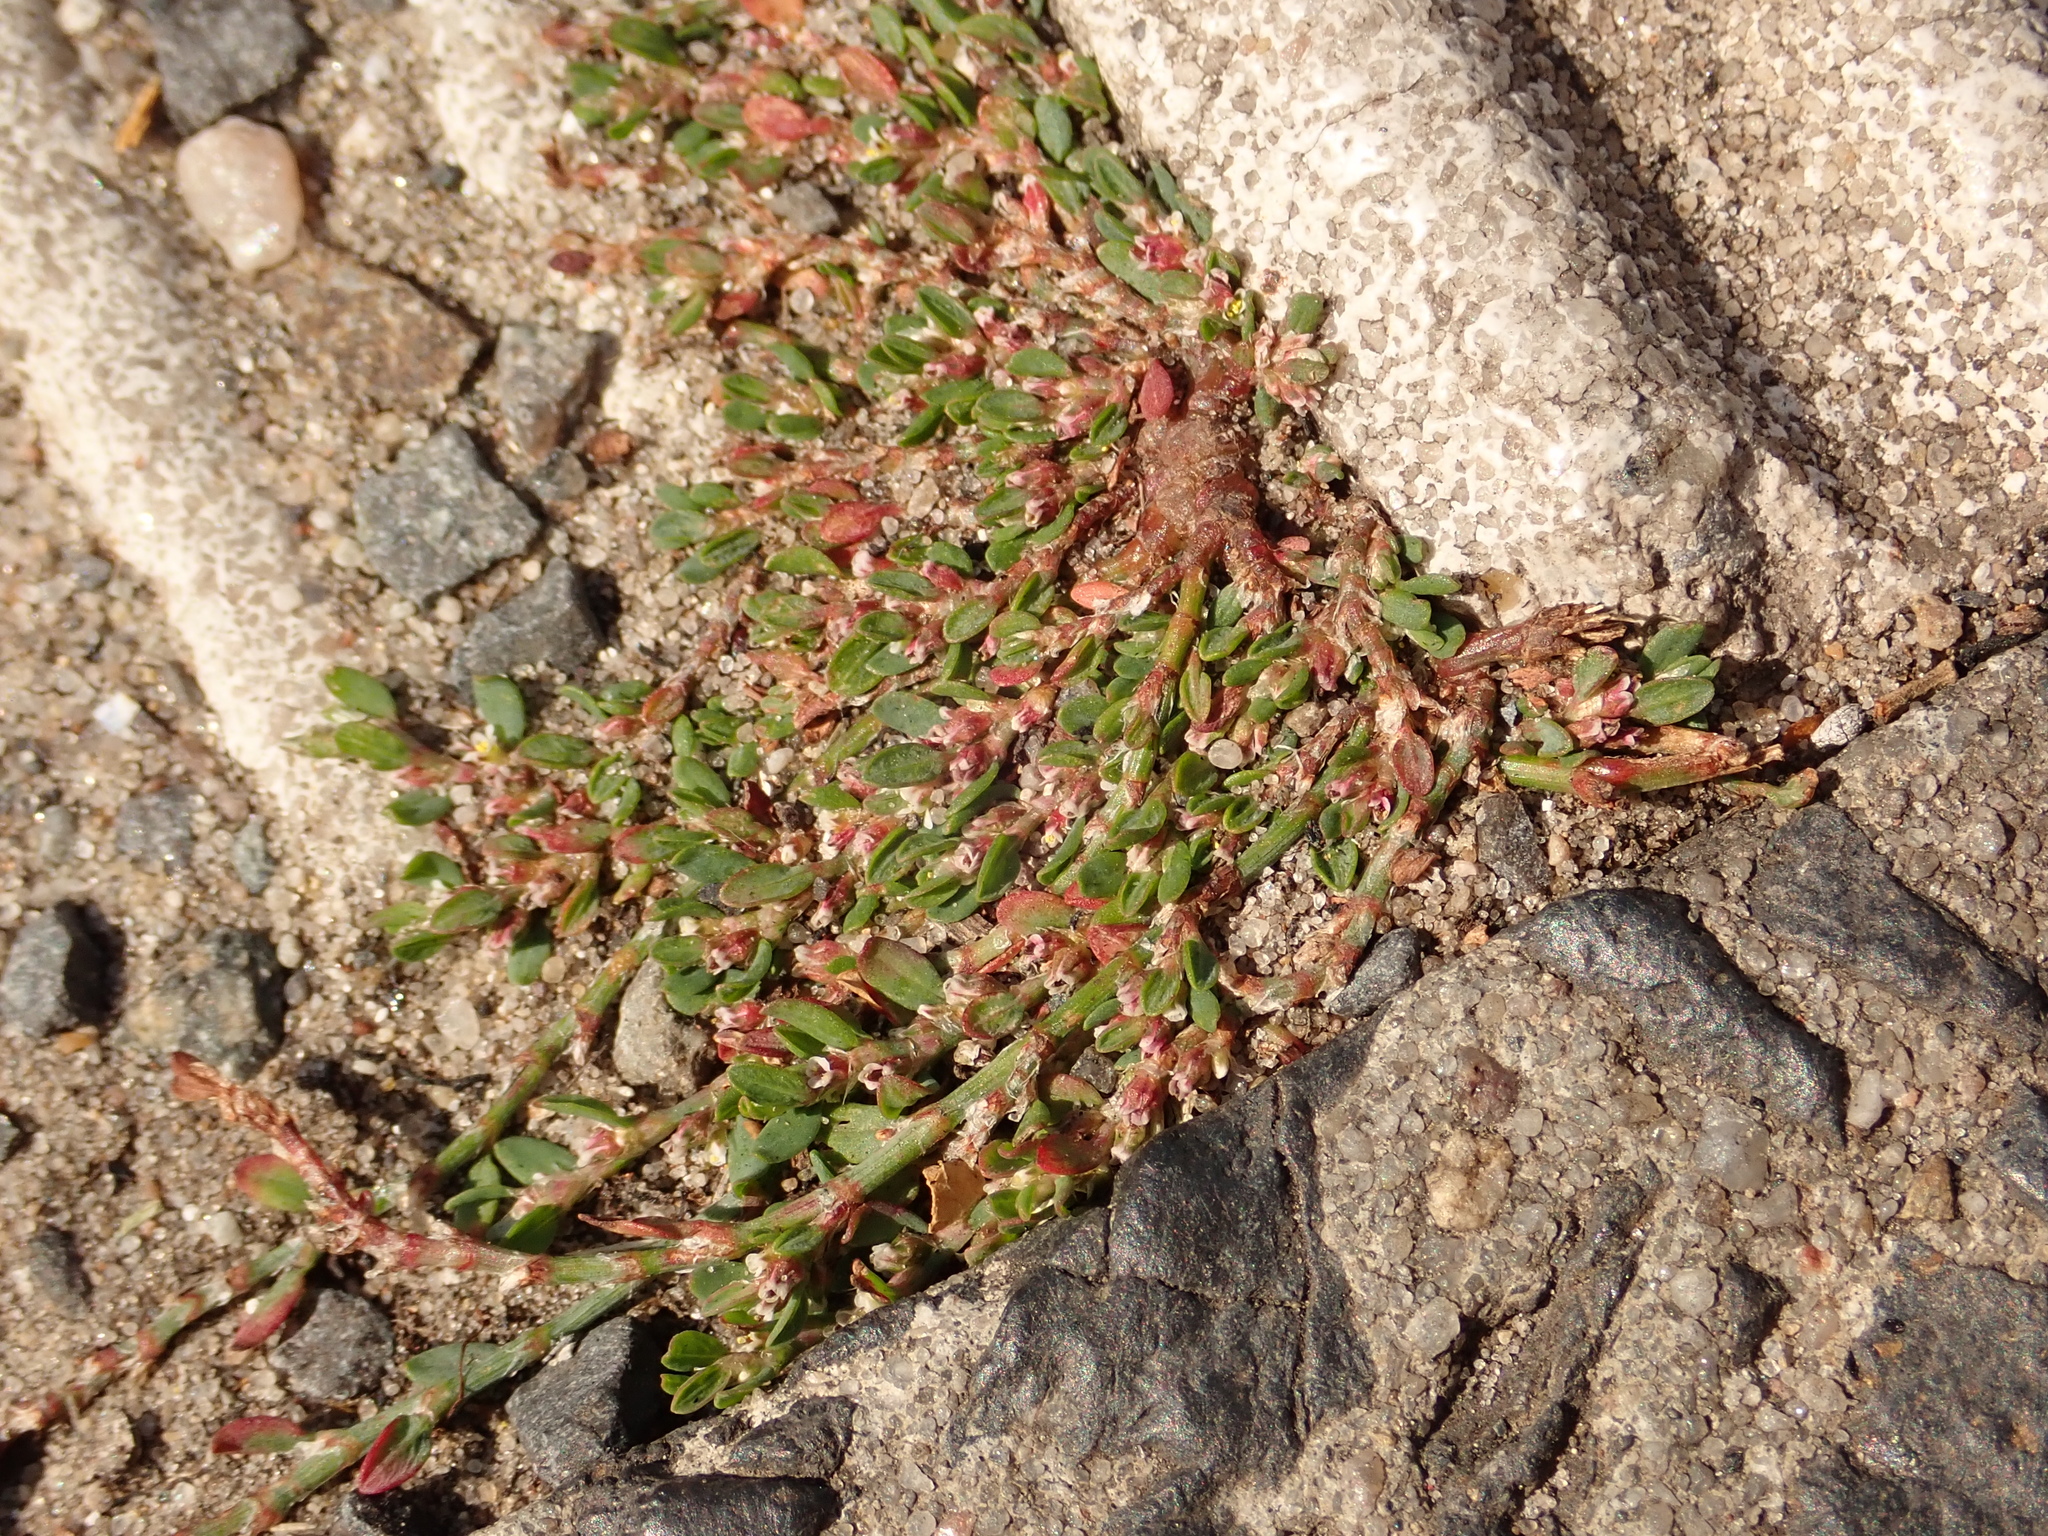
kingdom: Plantae
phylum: Tracheophyta
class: Magnoliopsida
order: Caryophyllales
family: Polygonaceae
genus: Polygonum
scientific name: Polygonum arenastrum
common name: Equal-leaved knotgrass
